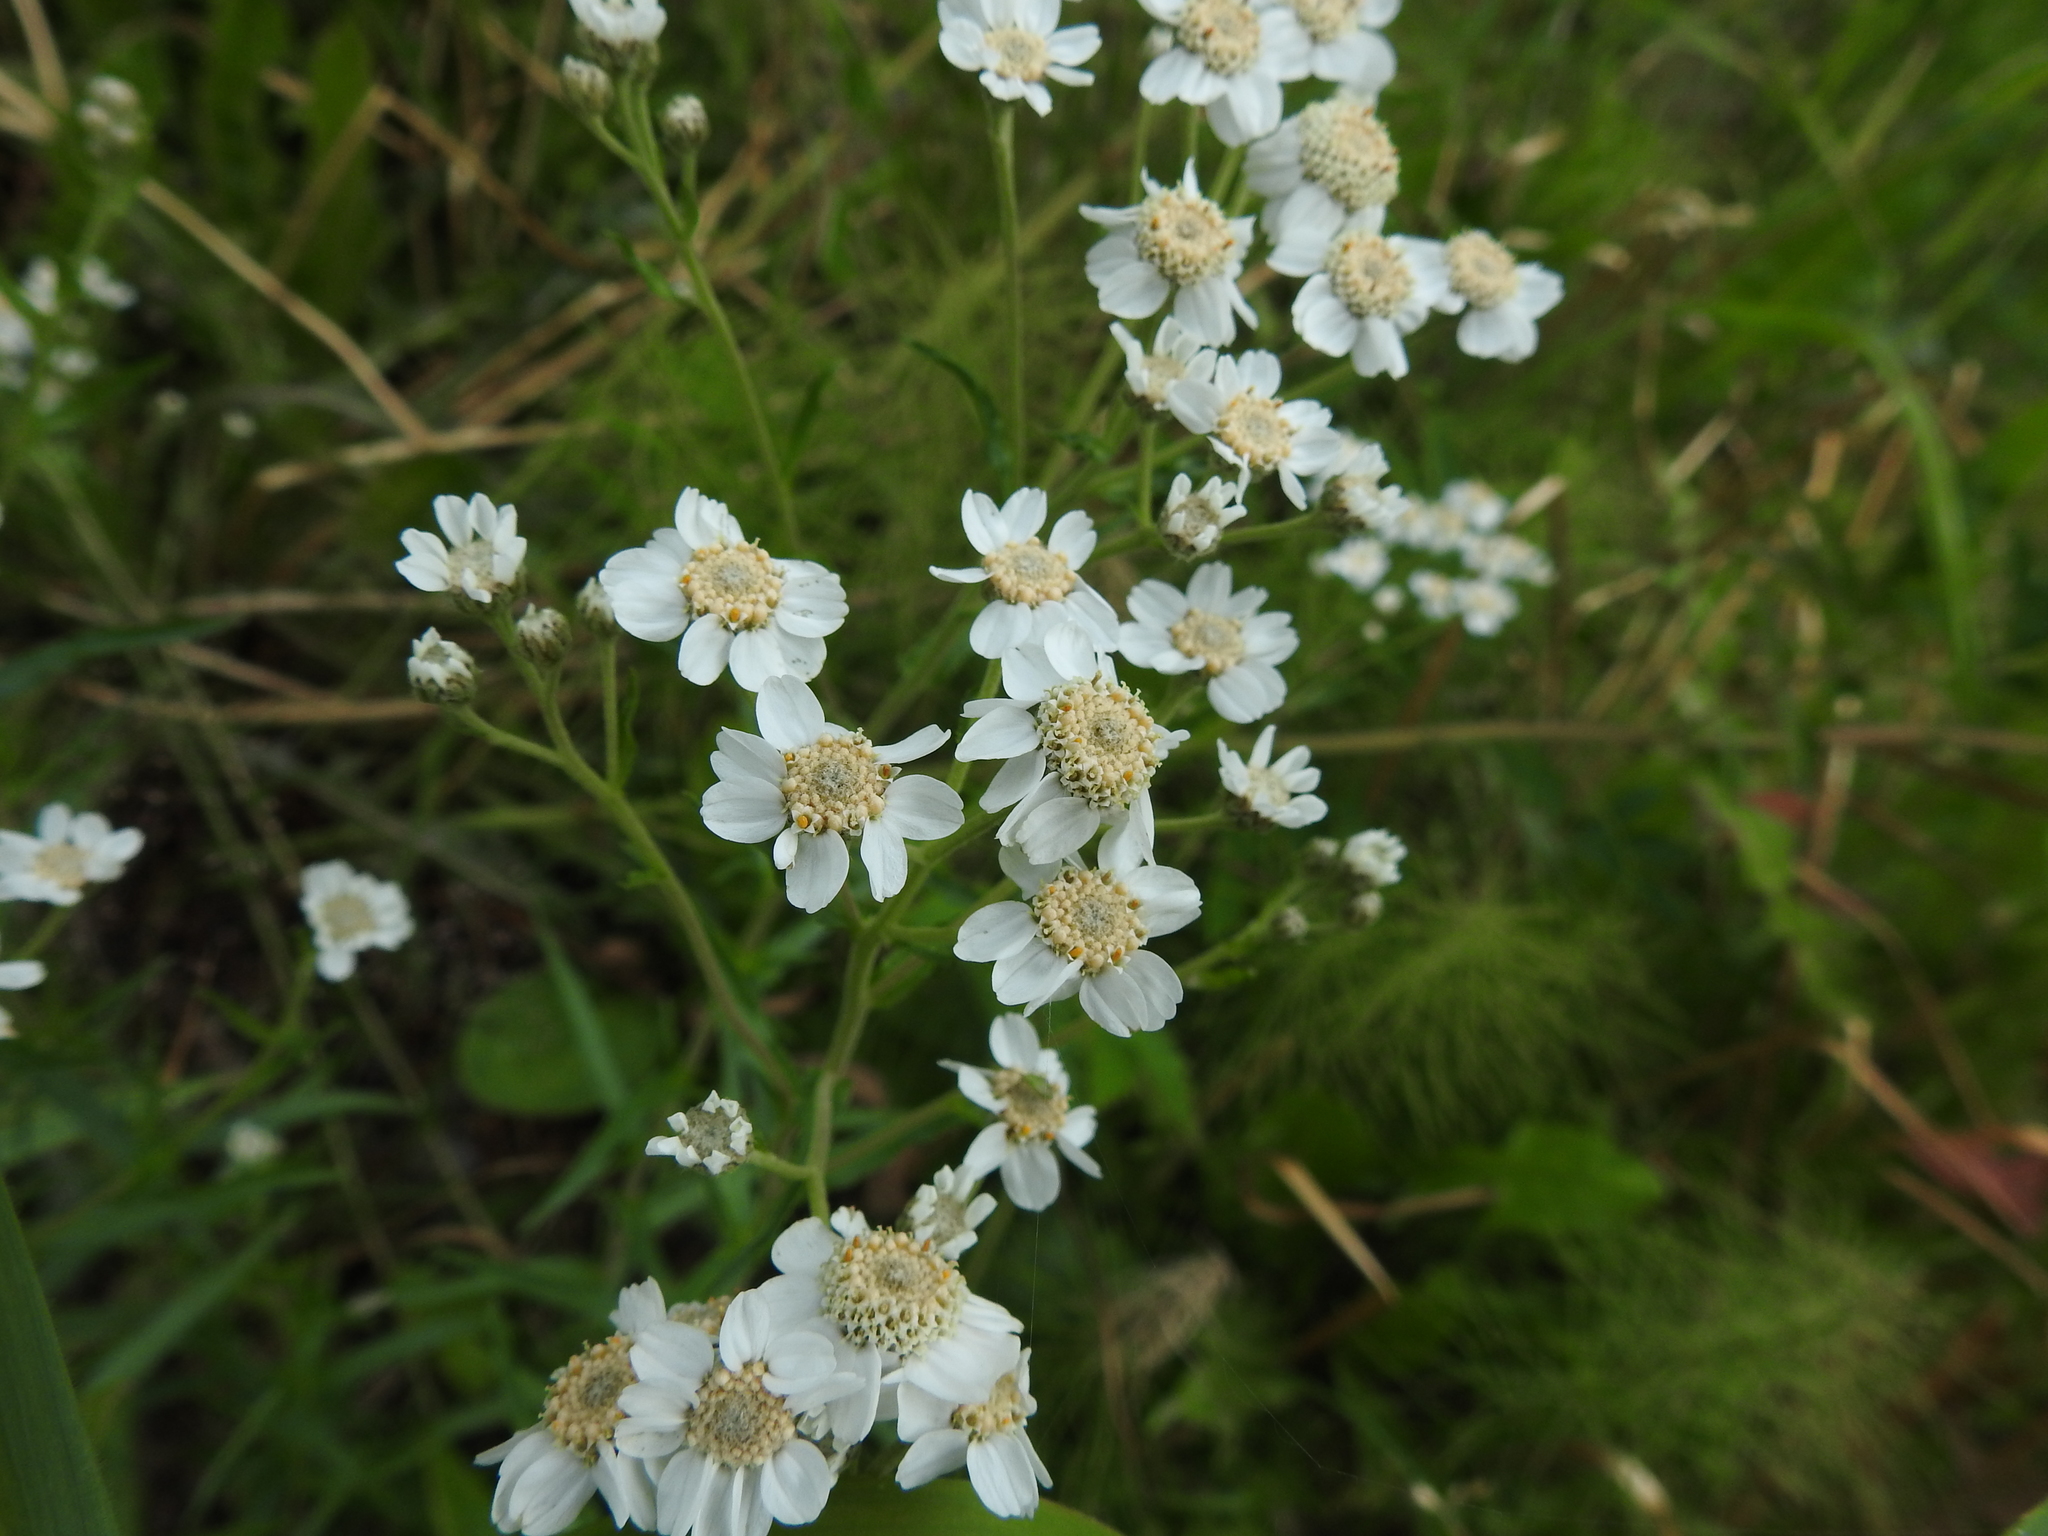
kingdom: Plantae
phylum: Tracheophyta
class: Magnoliopsida
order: Asterales
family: Asteraceae
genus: Achillea
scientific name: Achillea ptarmica
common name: Sneezeweed
